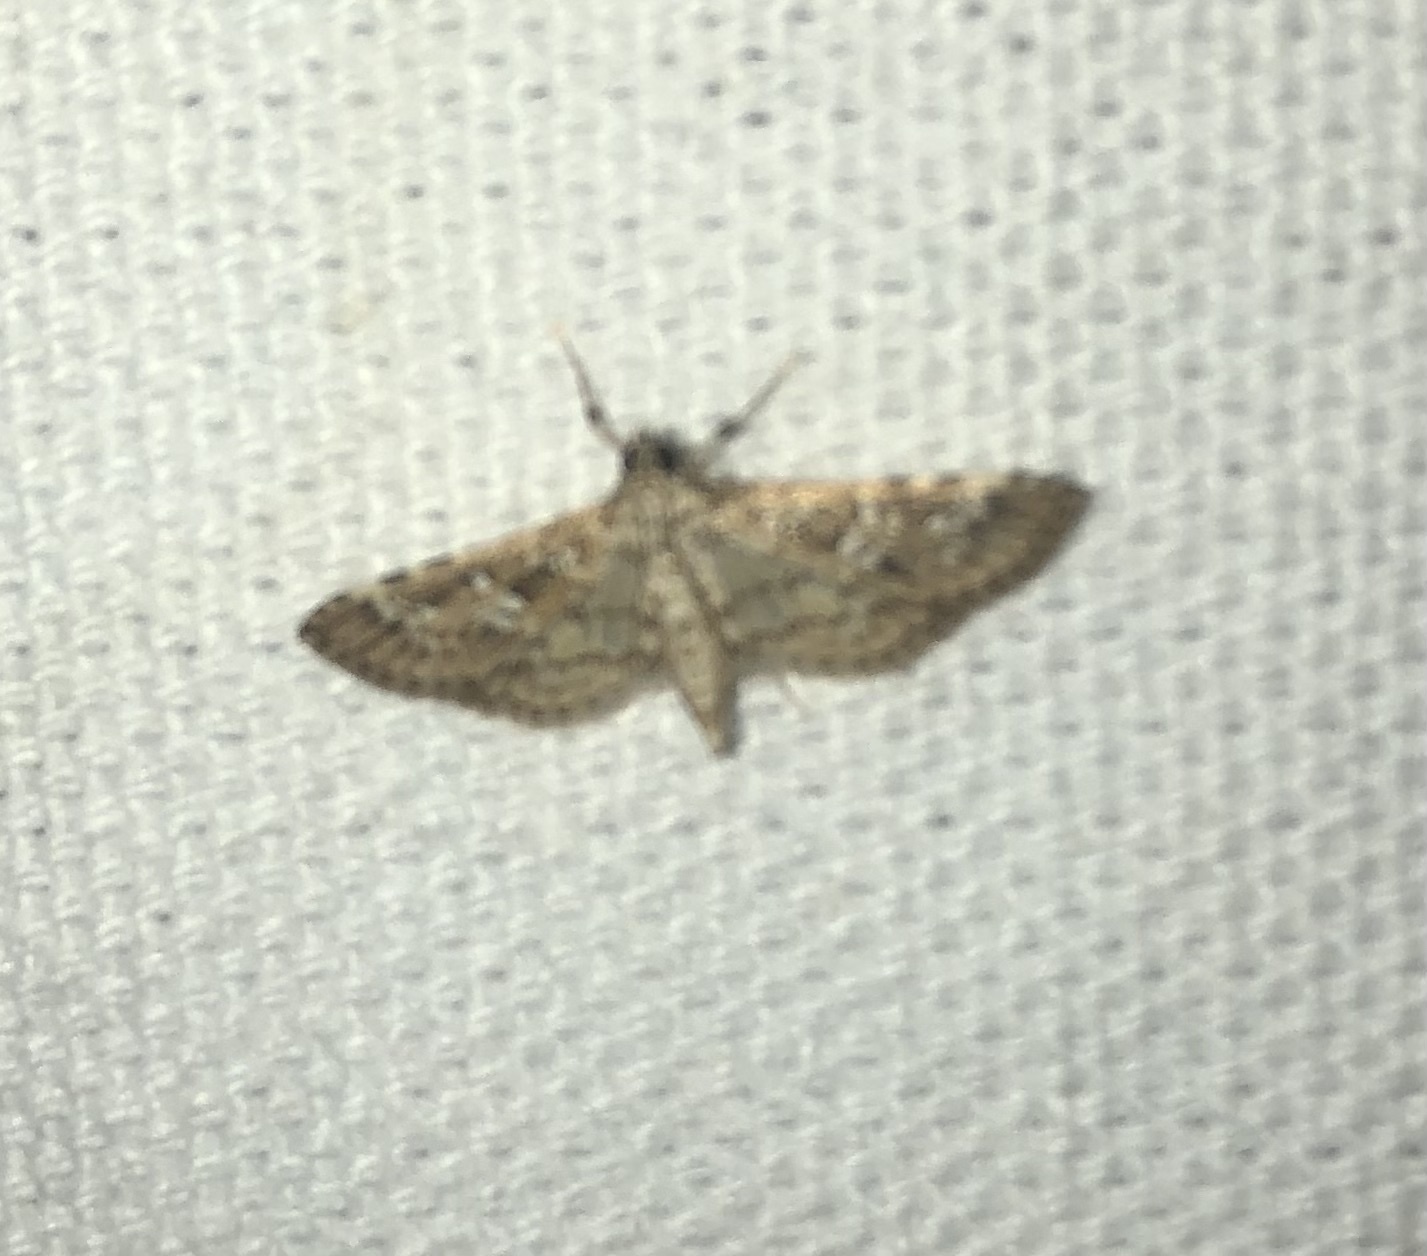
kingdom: Animalia
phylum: Arthropoda
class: Insecta
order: Lepidoptera
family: Crambidae
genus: Samea
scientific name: Samea multiplicalis
